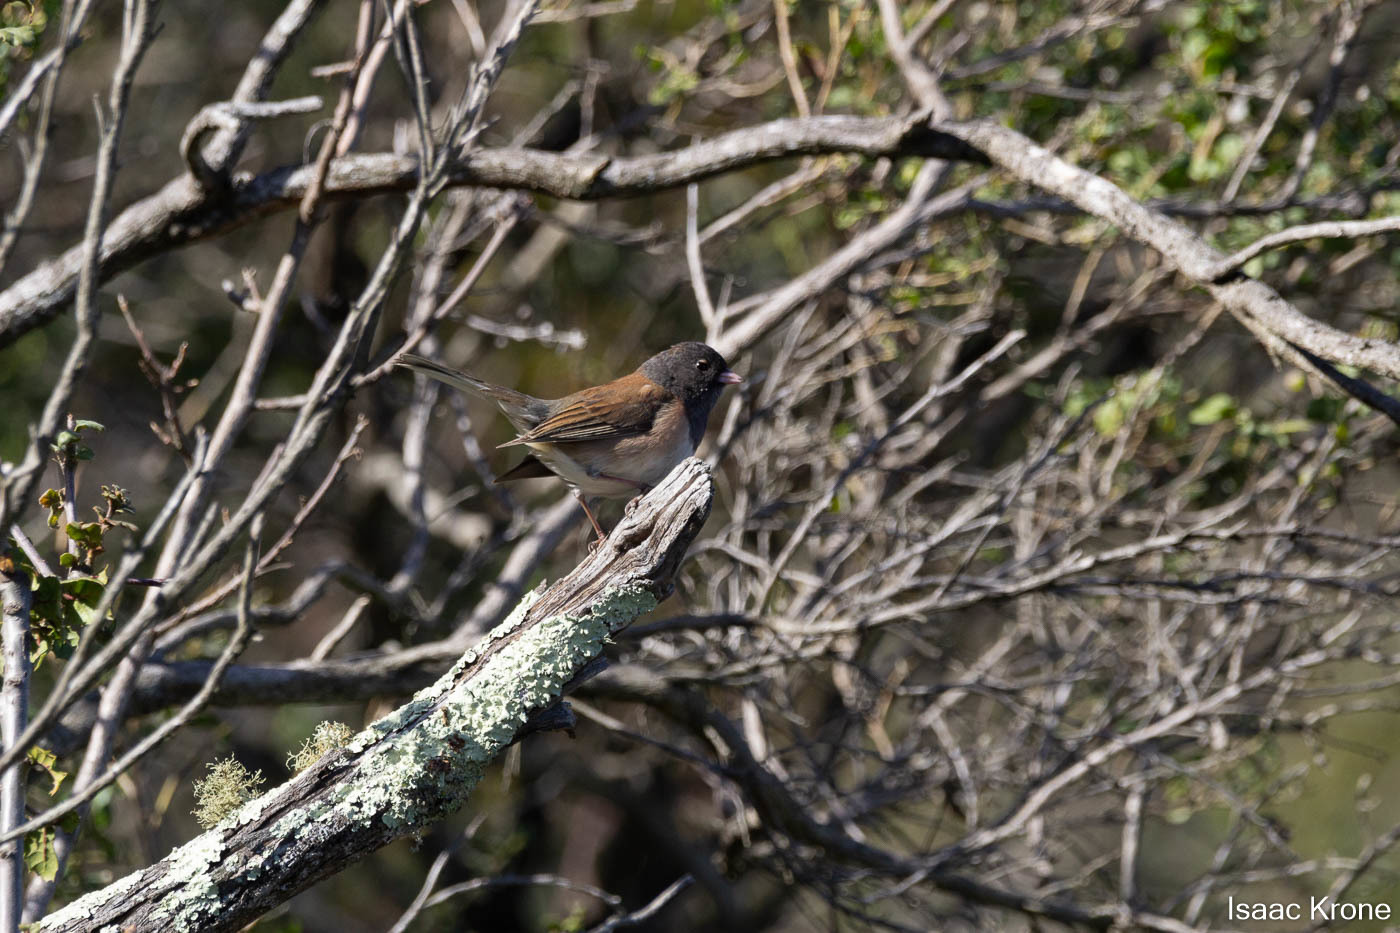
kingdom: Animalia
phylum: Chordata
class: Aves
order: Passeriformes
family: Passerellidae
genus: Junco
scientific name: Junco hyemalis
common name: Dark-eyed junco
